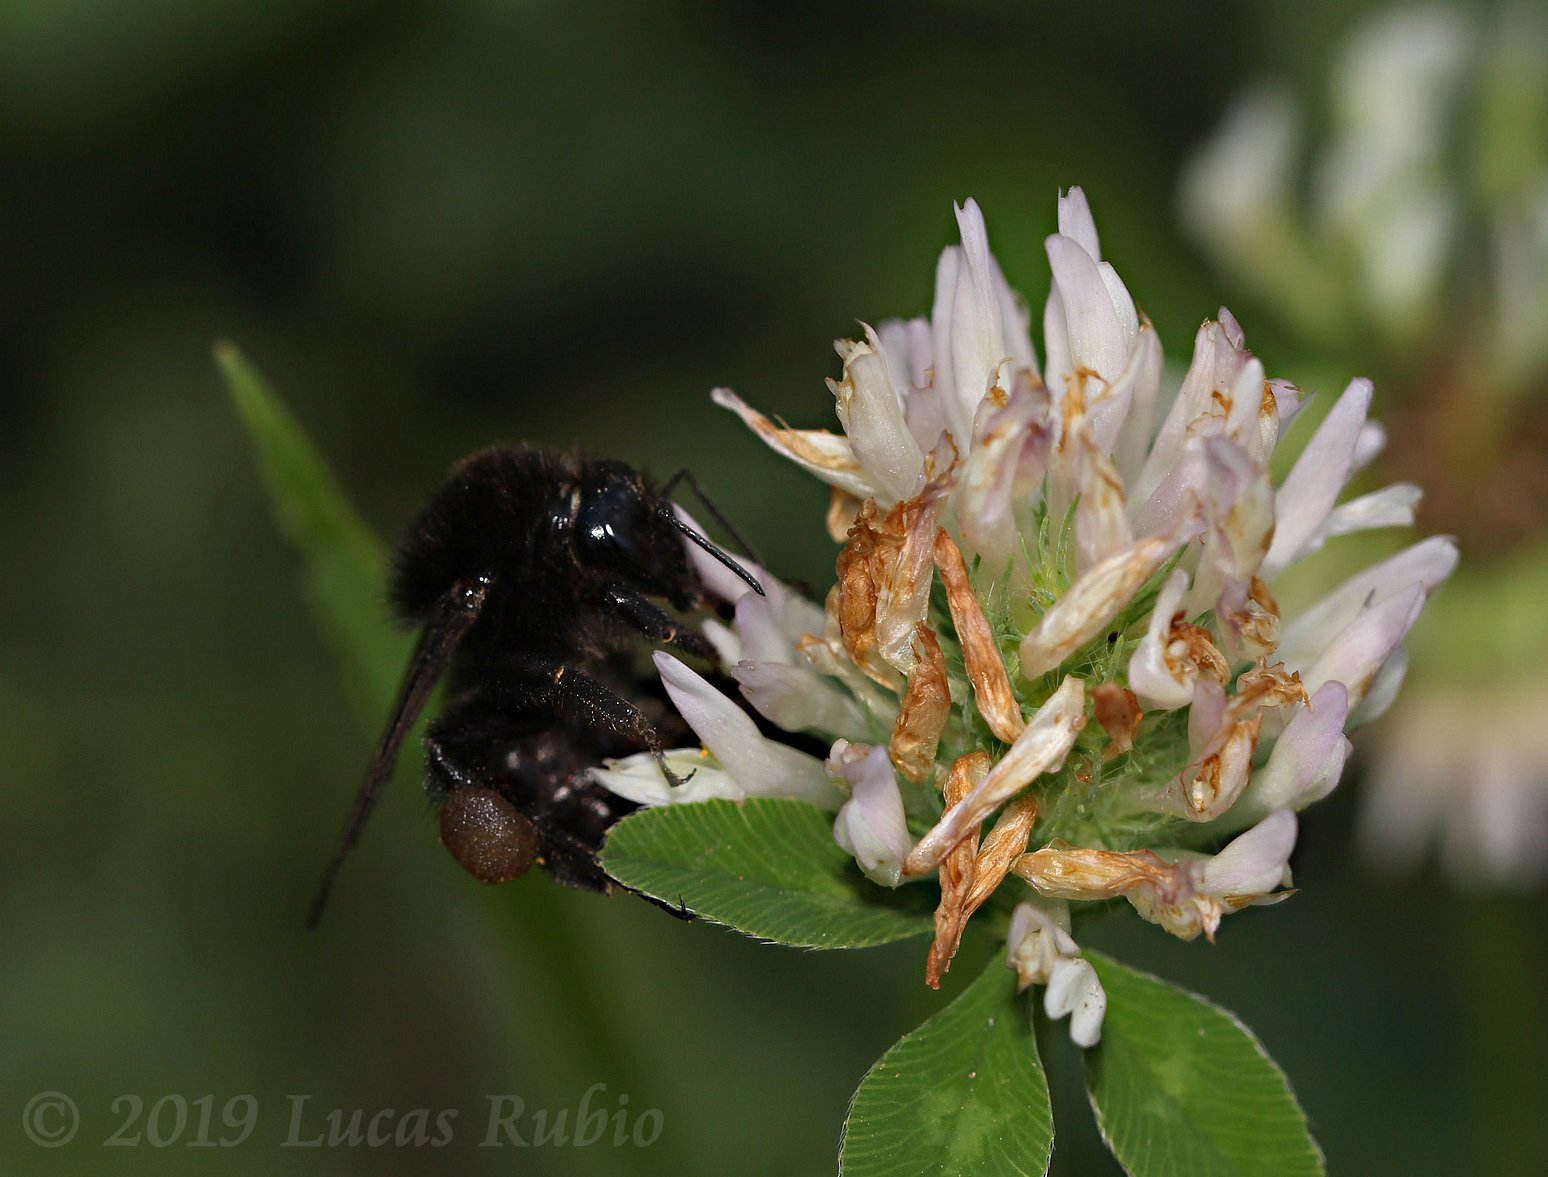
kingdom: Animalia
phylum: Arthropoda
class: Insecta
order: Hymenoptera
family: Apidae
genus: Bombus
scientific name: Bombus pauloensis
